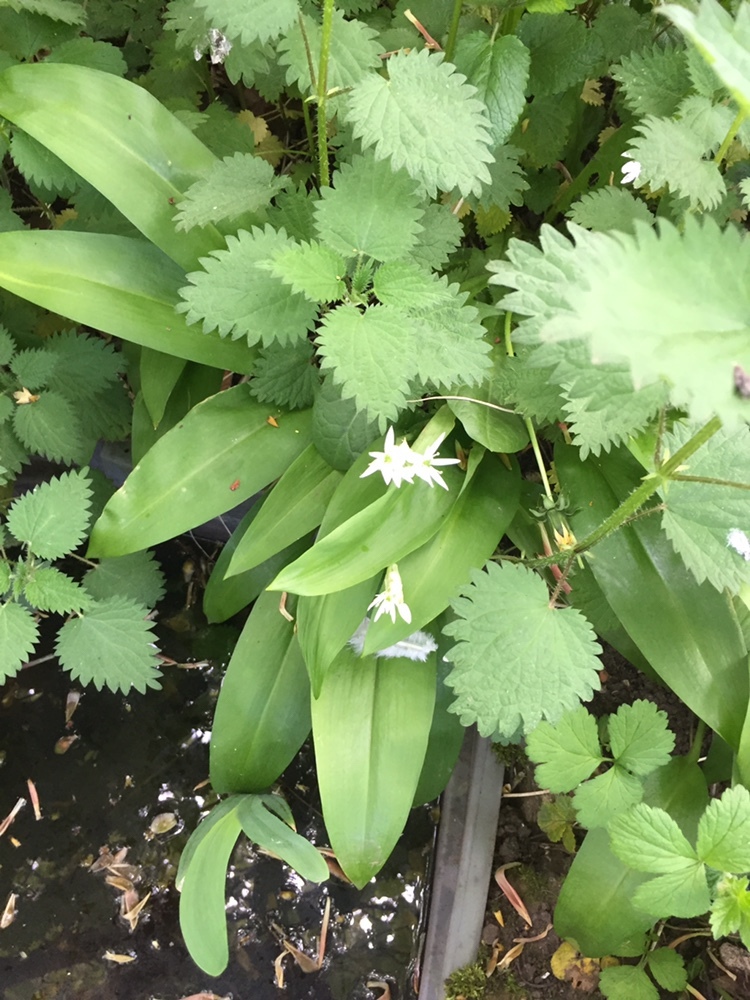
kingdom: Plantae
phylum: Tracheophyta
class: Liliopsida
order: Asparagales
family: Amaryllidaceae
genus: Allium
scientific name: Allium ursinum
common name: Ramsons
